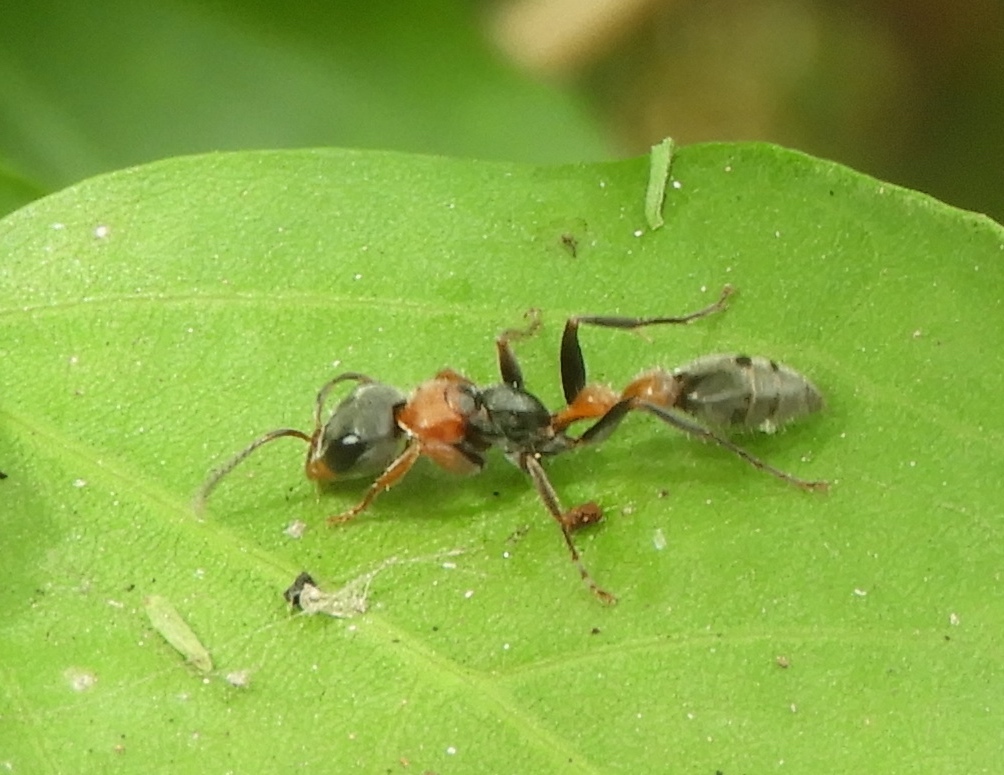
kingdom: Animalia
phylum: Arthropoda
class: Insecta
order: Hymenoptera
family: Formicidae
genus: Pseudomyrmex
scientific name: Pseudomyrmex gracilis
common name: Graceful twig ant
